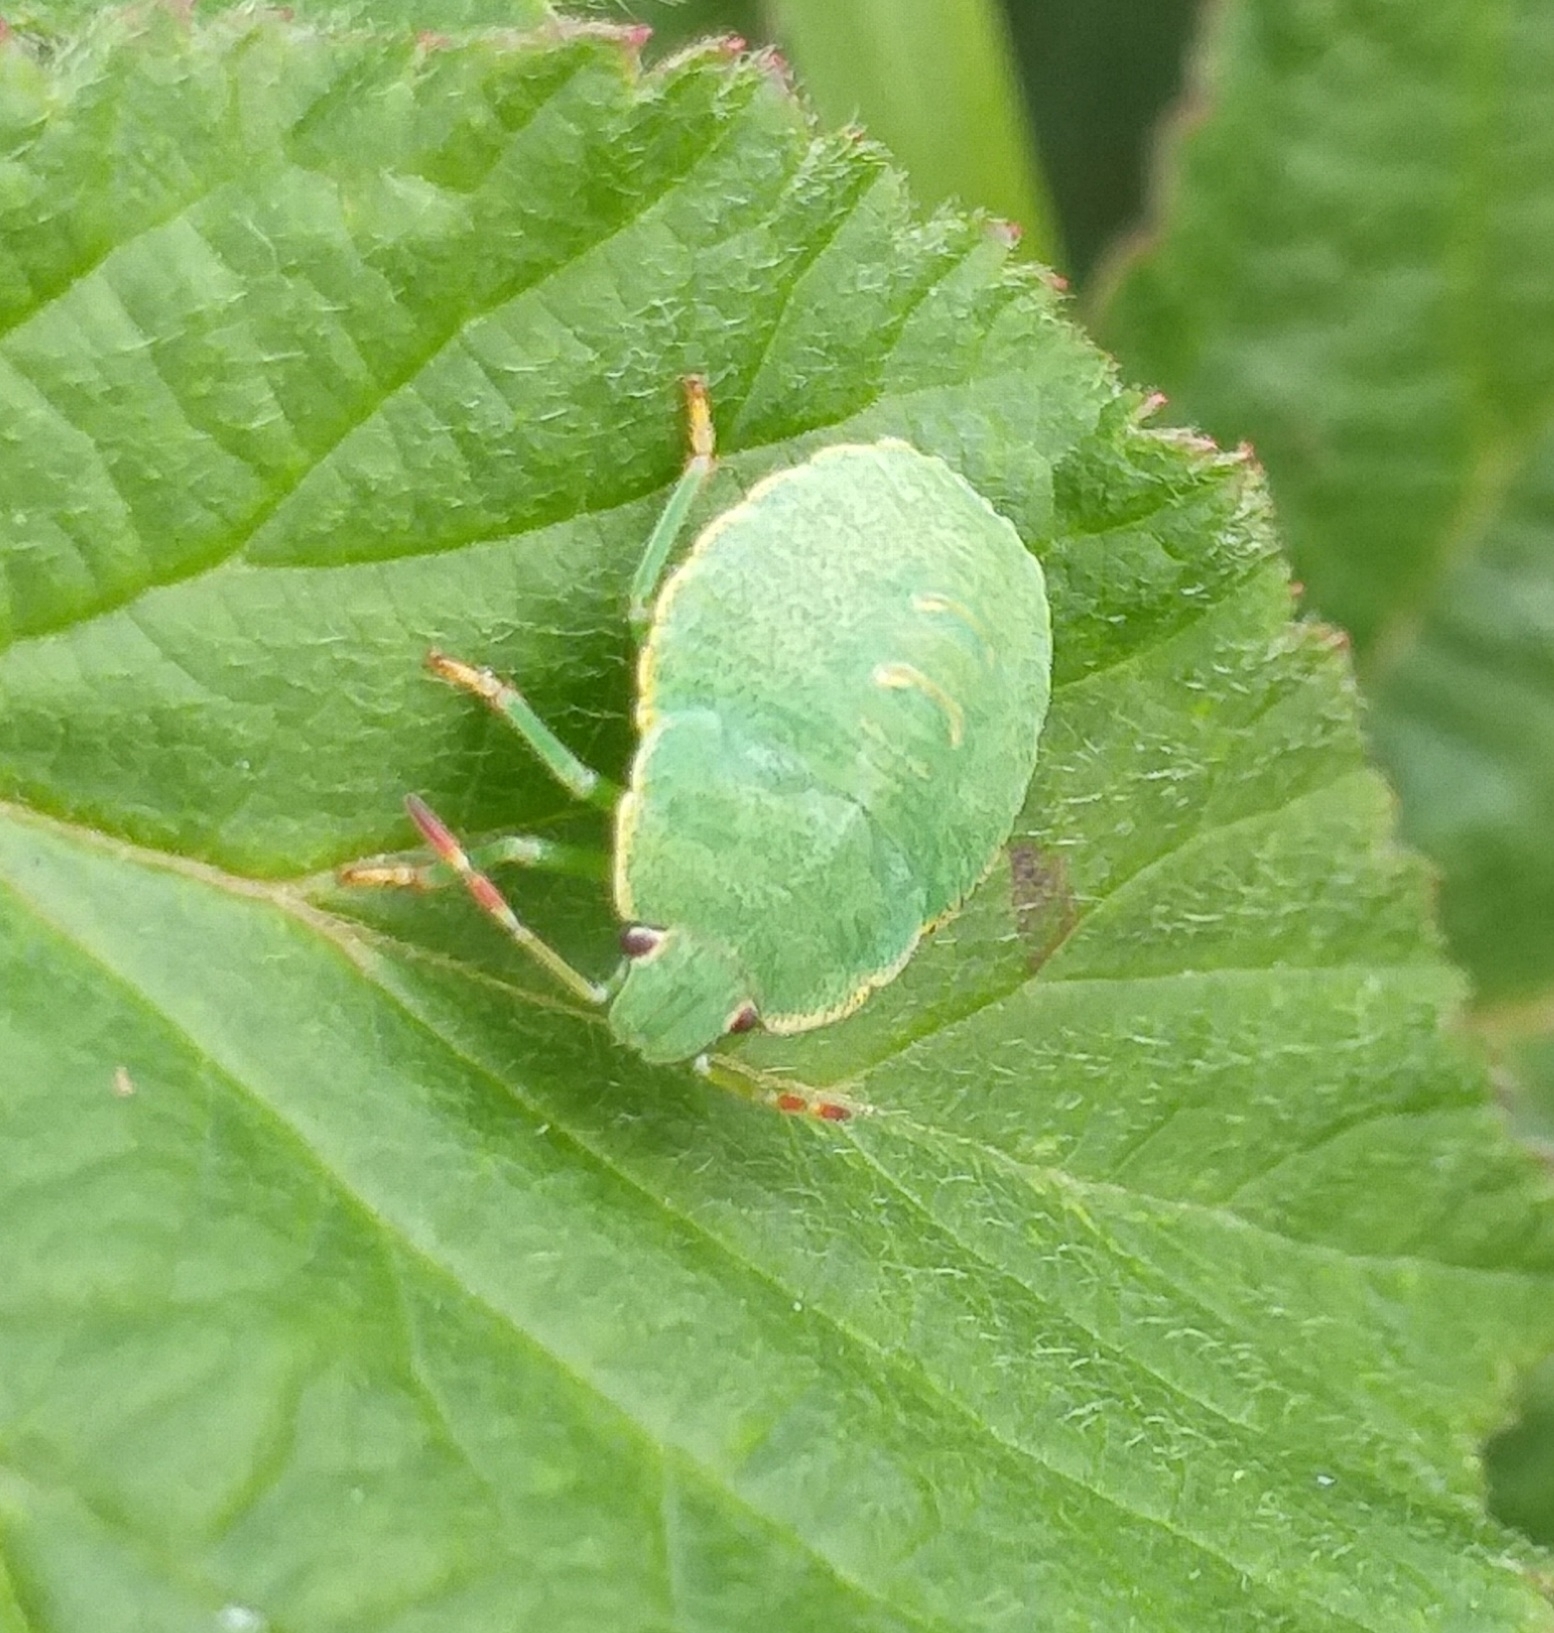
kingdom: Animalia
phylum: Arthropoda
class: Insecta
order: Hemiptera
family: Pentatomidae
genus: Palomena
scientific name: Palomena prasina
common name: Green shieldbug
